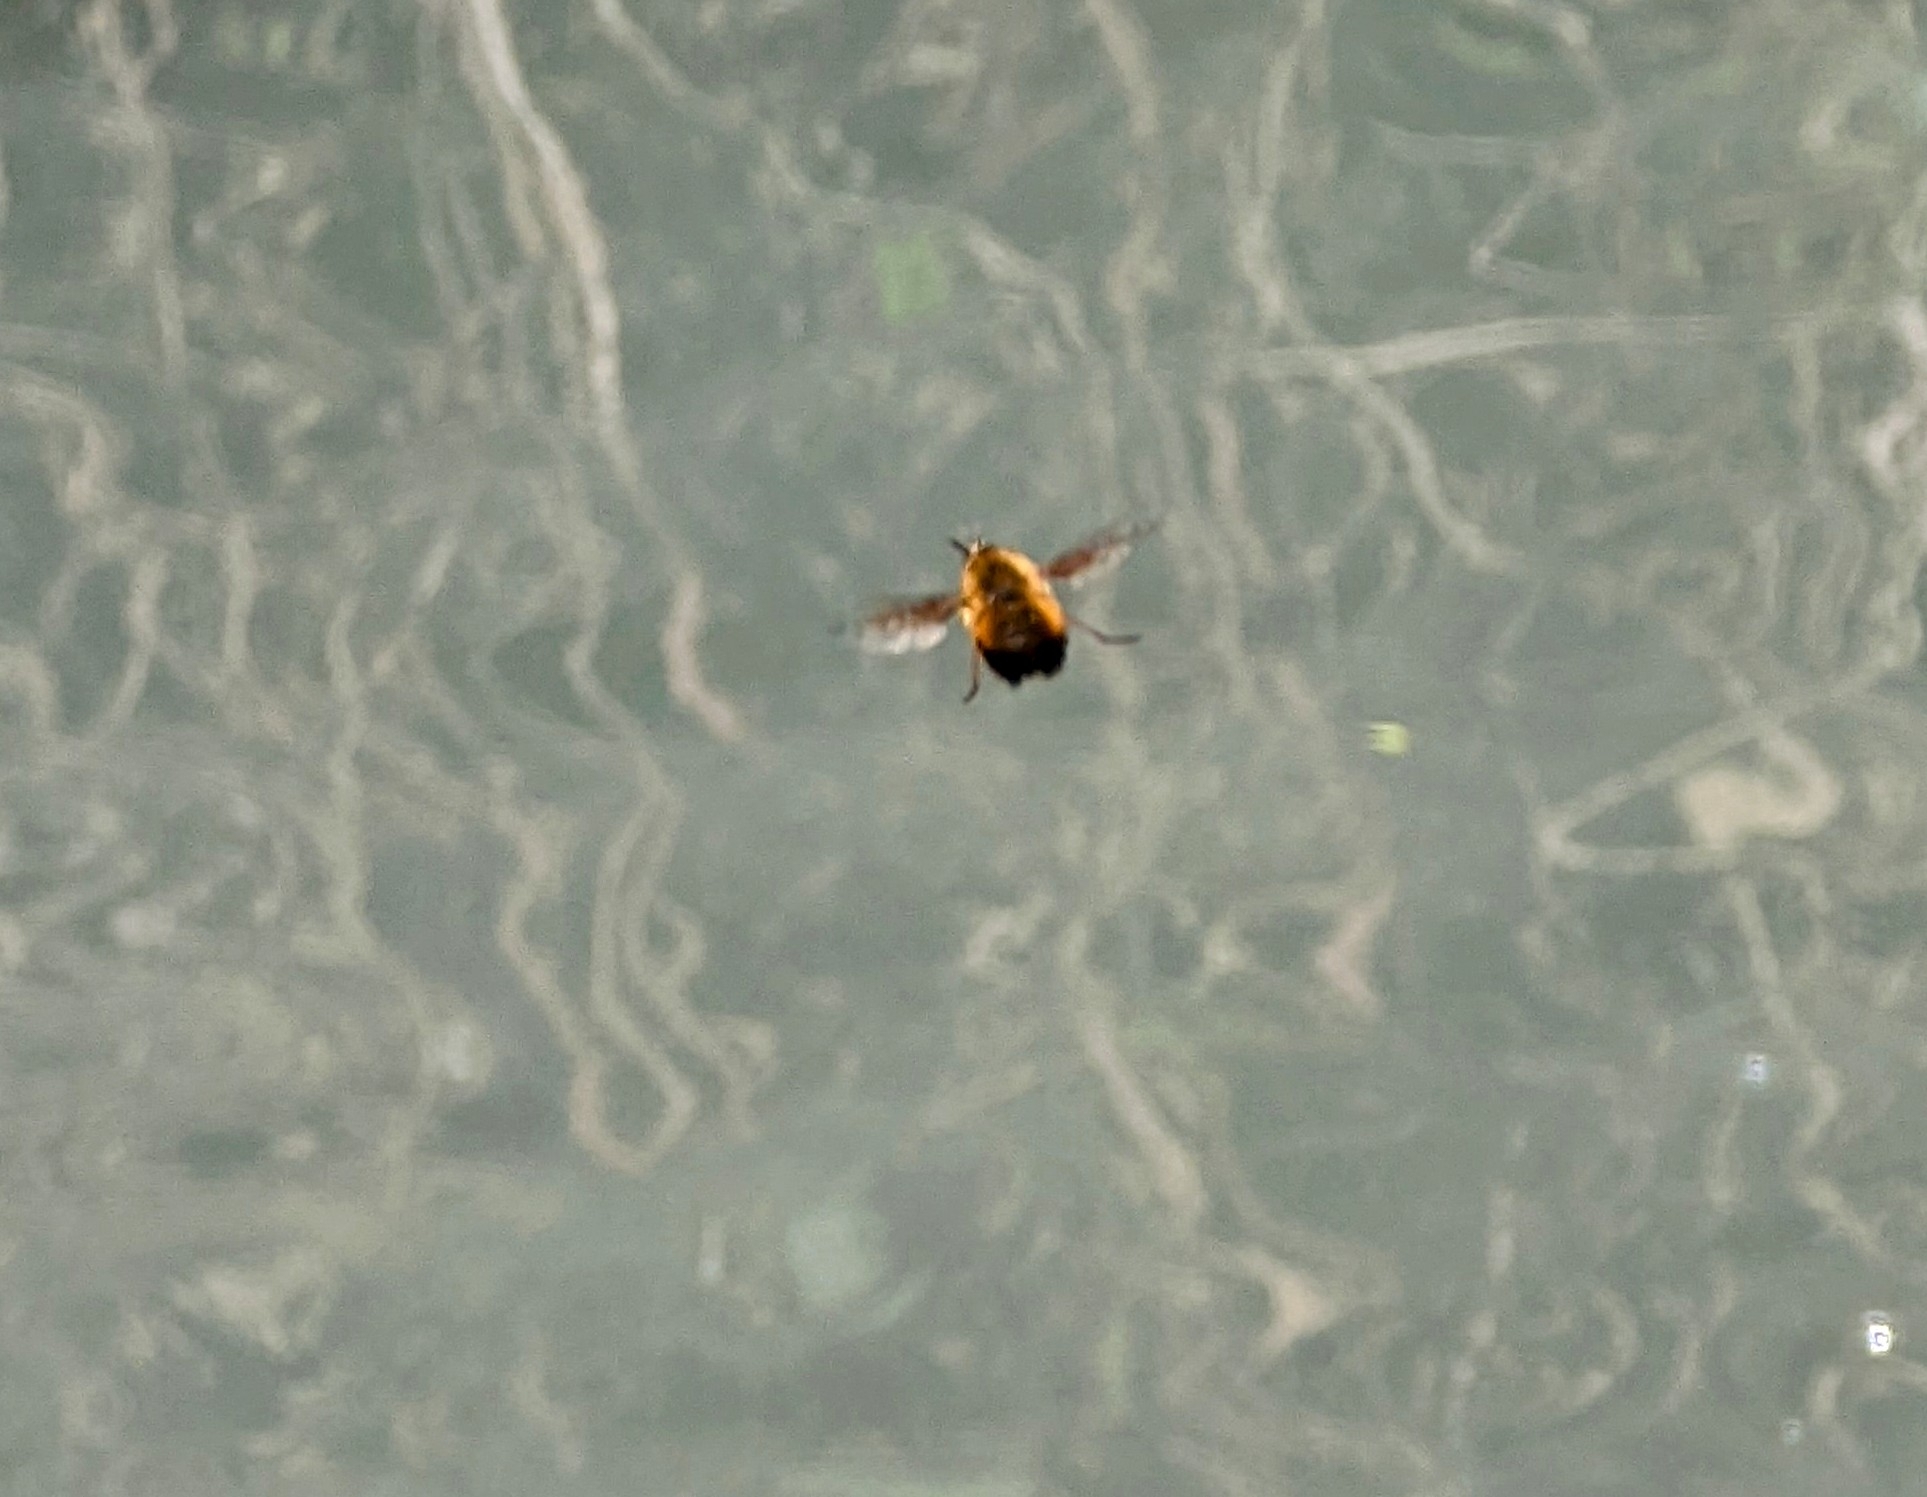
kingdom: Animalia
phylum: Arthropoda
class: Insecta
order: Diptera
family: Bombyliidae
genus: Bombylius
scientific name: Bombylius discolor
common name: Dotted bee-fly
